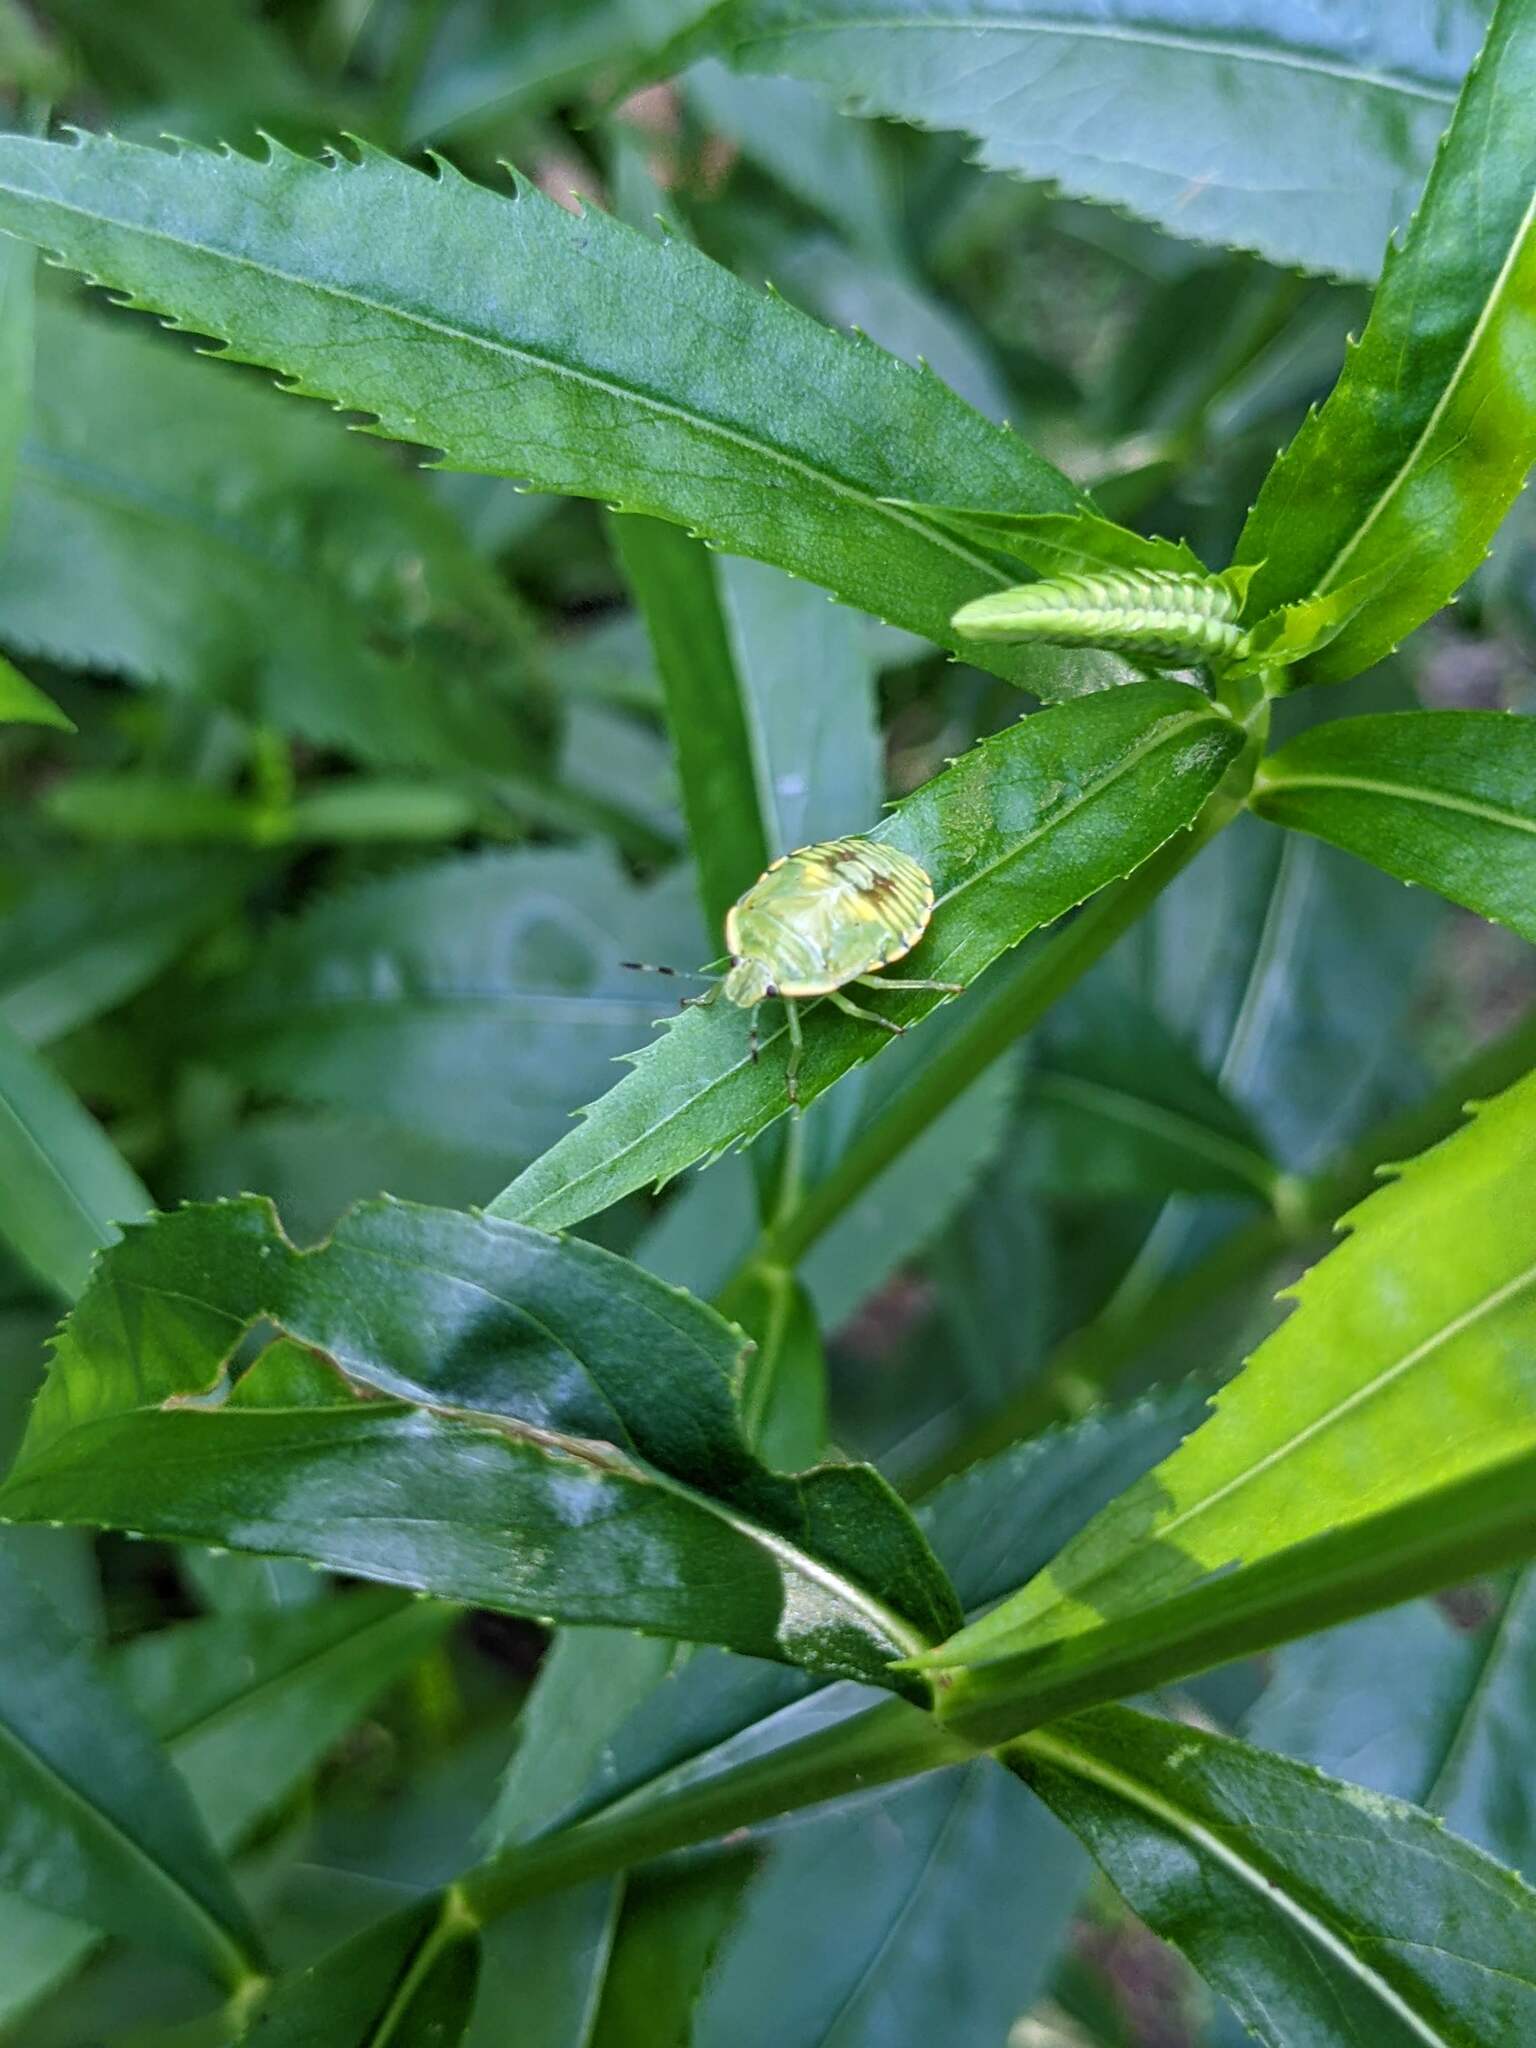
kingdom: Animalia
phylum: Arthropoda
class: Insecta
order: Hemiptera
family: Pentatomidae
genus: Chinavia
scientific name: Chinavia hilaris
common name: Green stink bug
